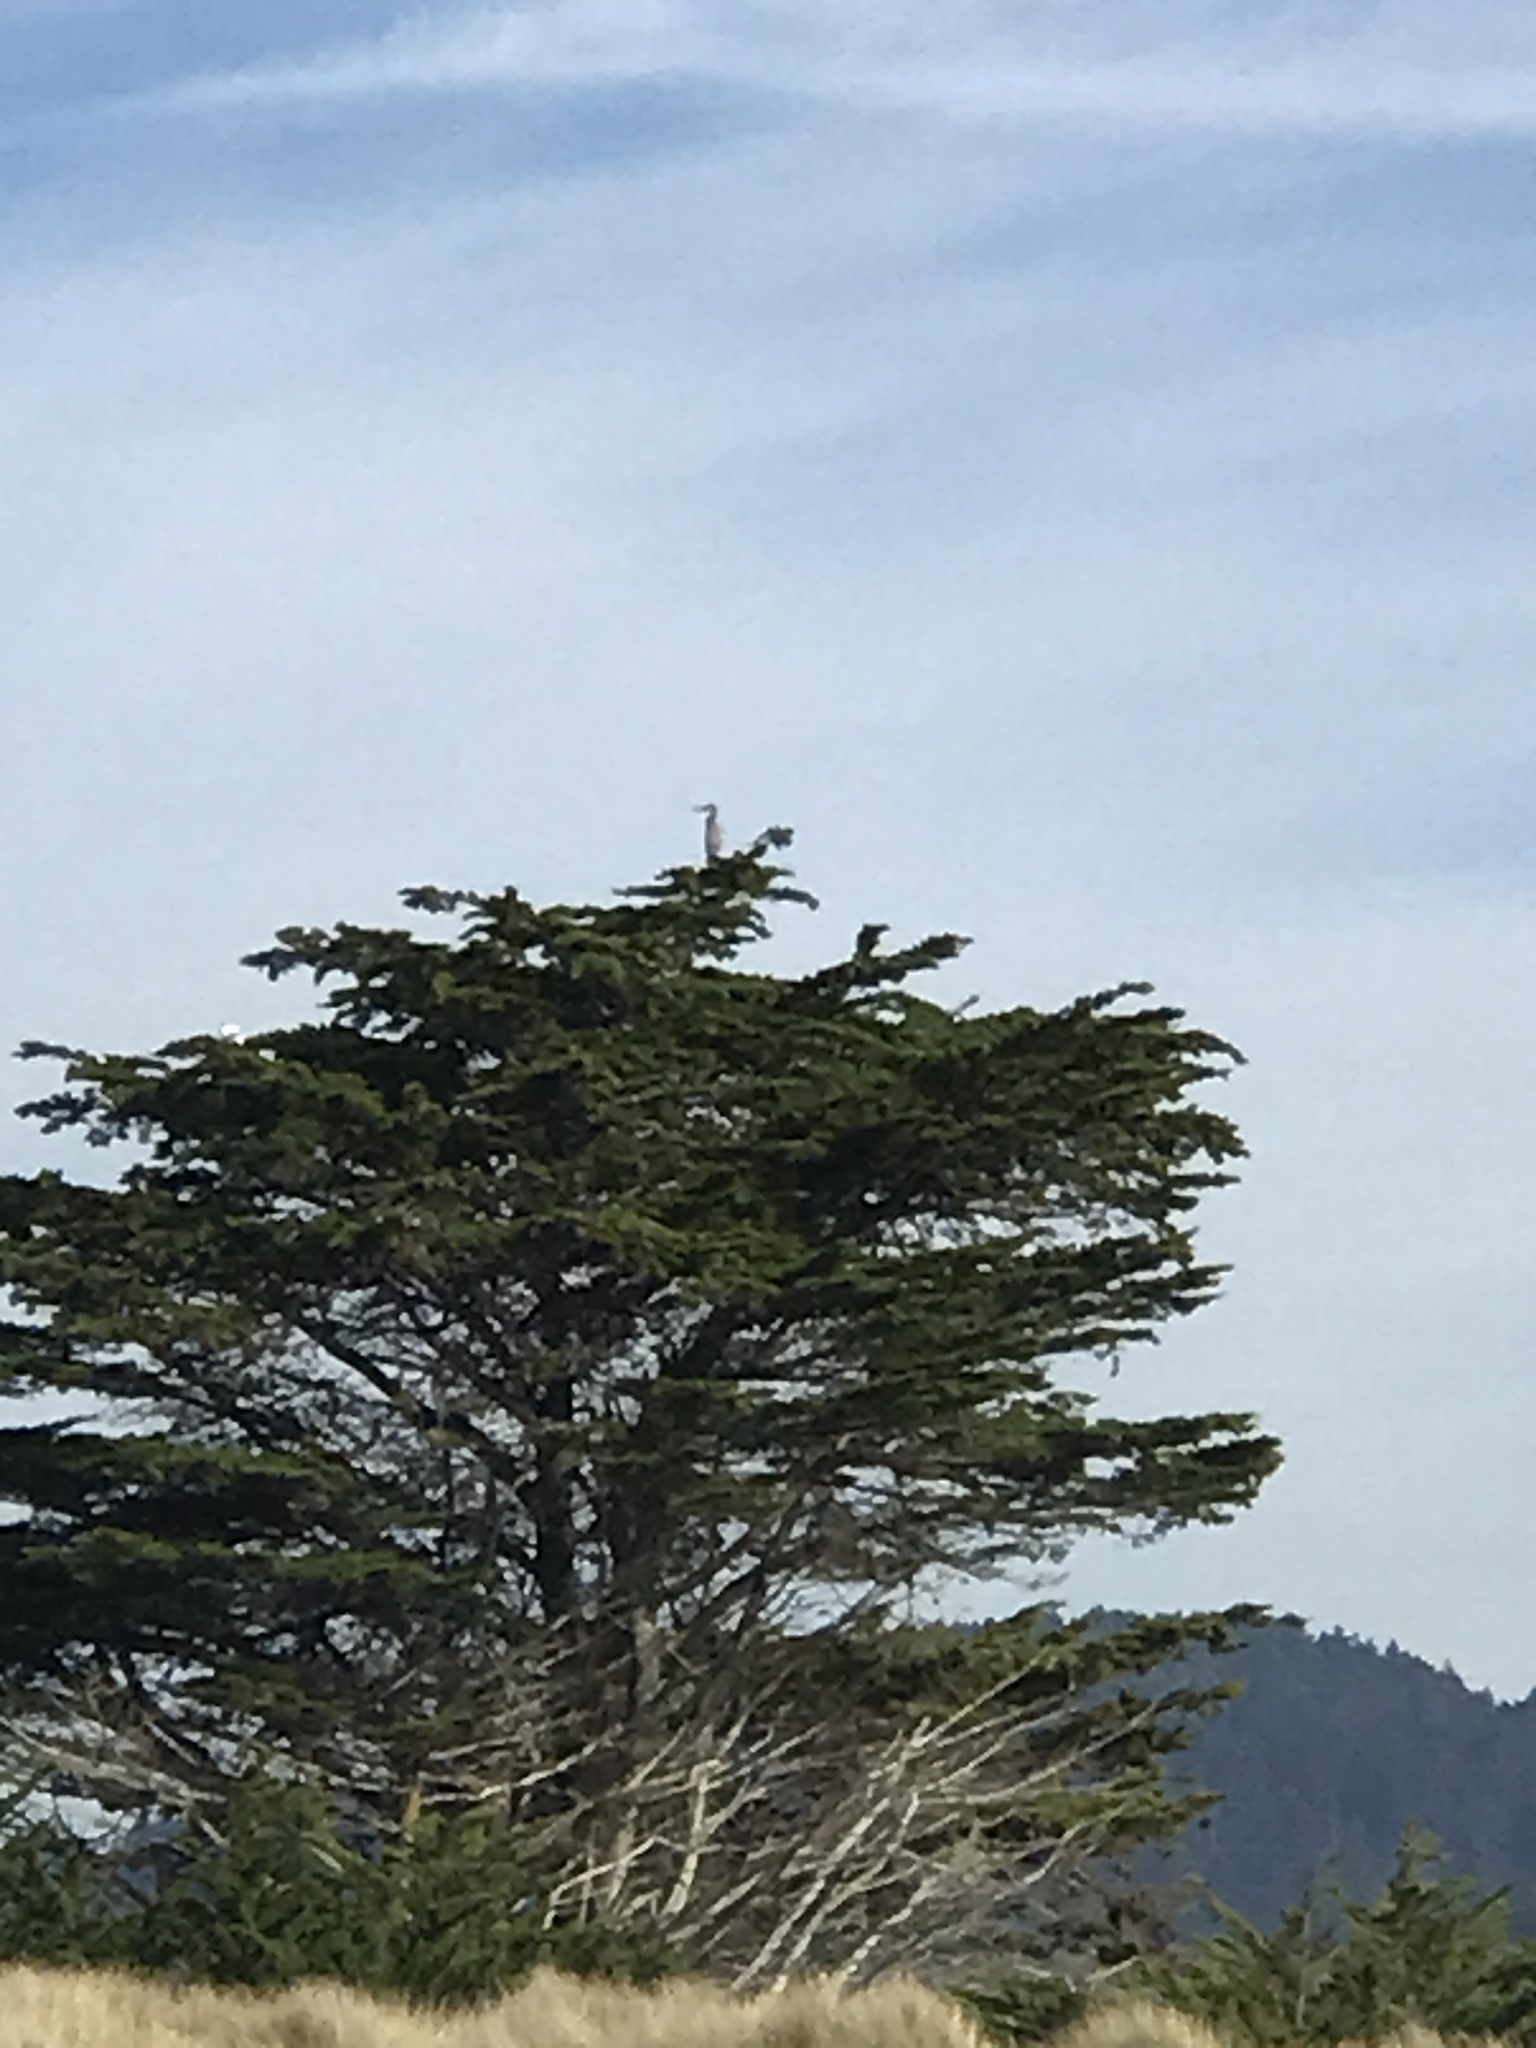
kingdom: Animalia
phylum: Chordata
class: Aves
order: Pelecaniformes
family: Ardeidae
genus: Ardea
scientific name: Ardea herodias
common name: Great blue heron
